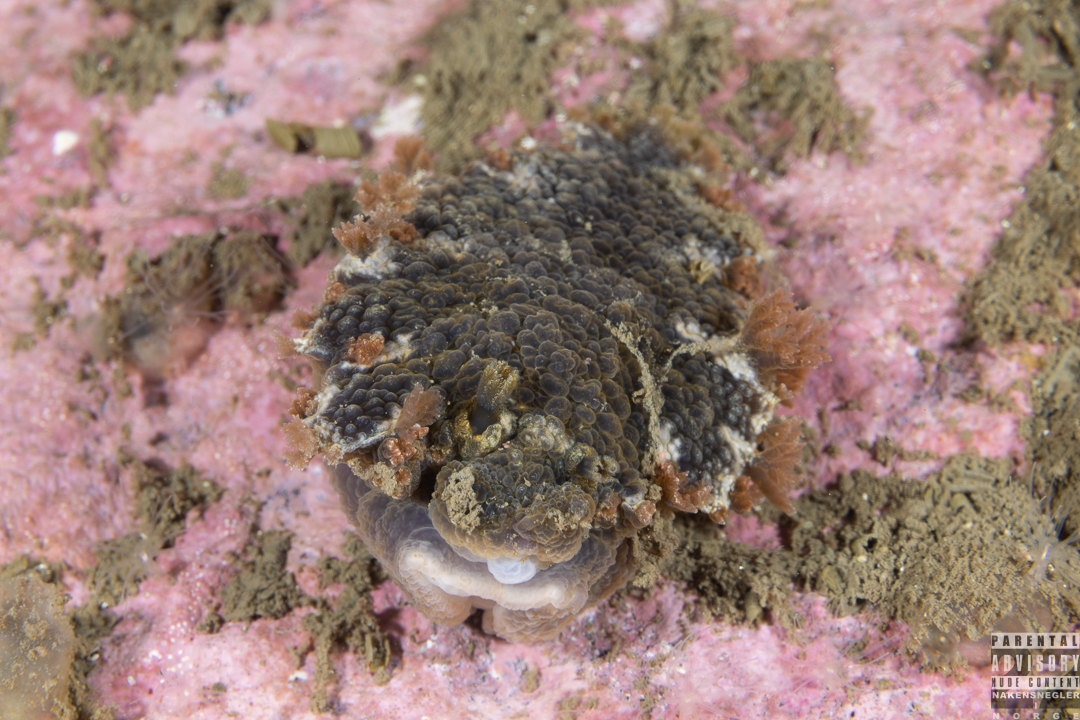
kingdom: Animalia
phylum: Mollusca
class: Gastropoda
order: Nudibranchia
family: Tritoniidae
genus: Tritonia
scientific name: Tritonia hombergii
